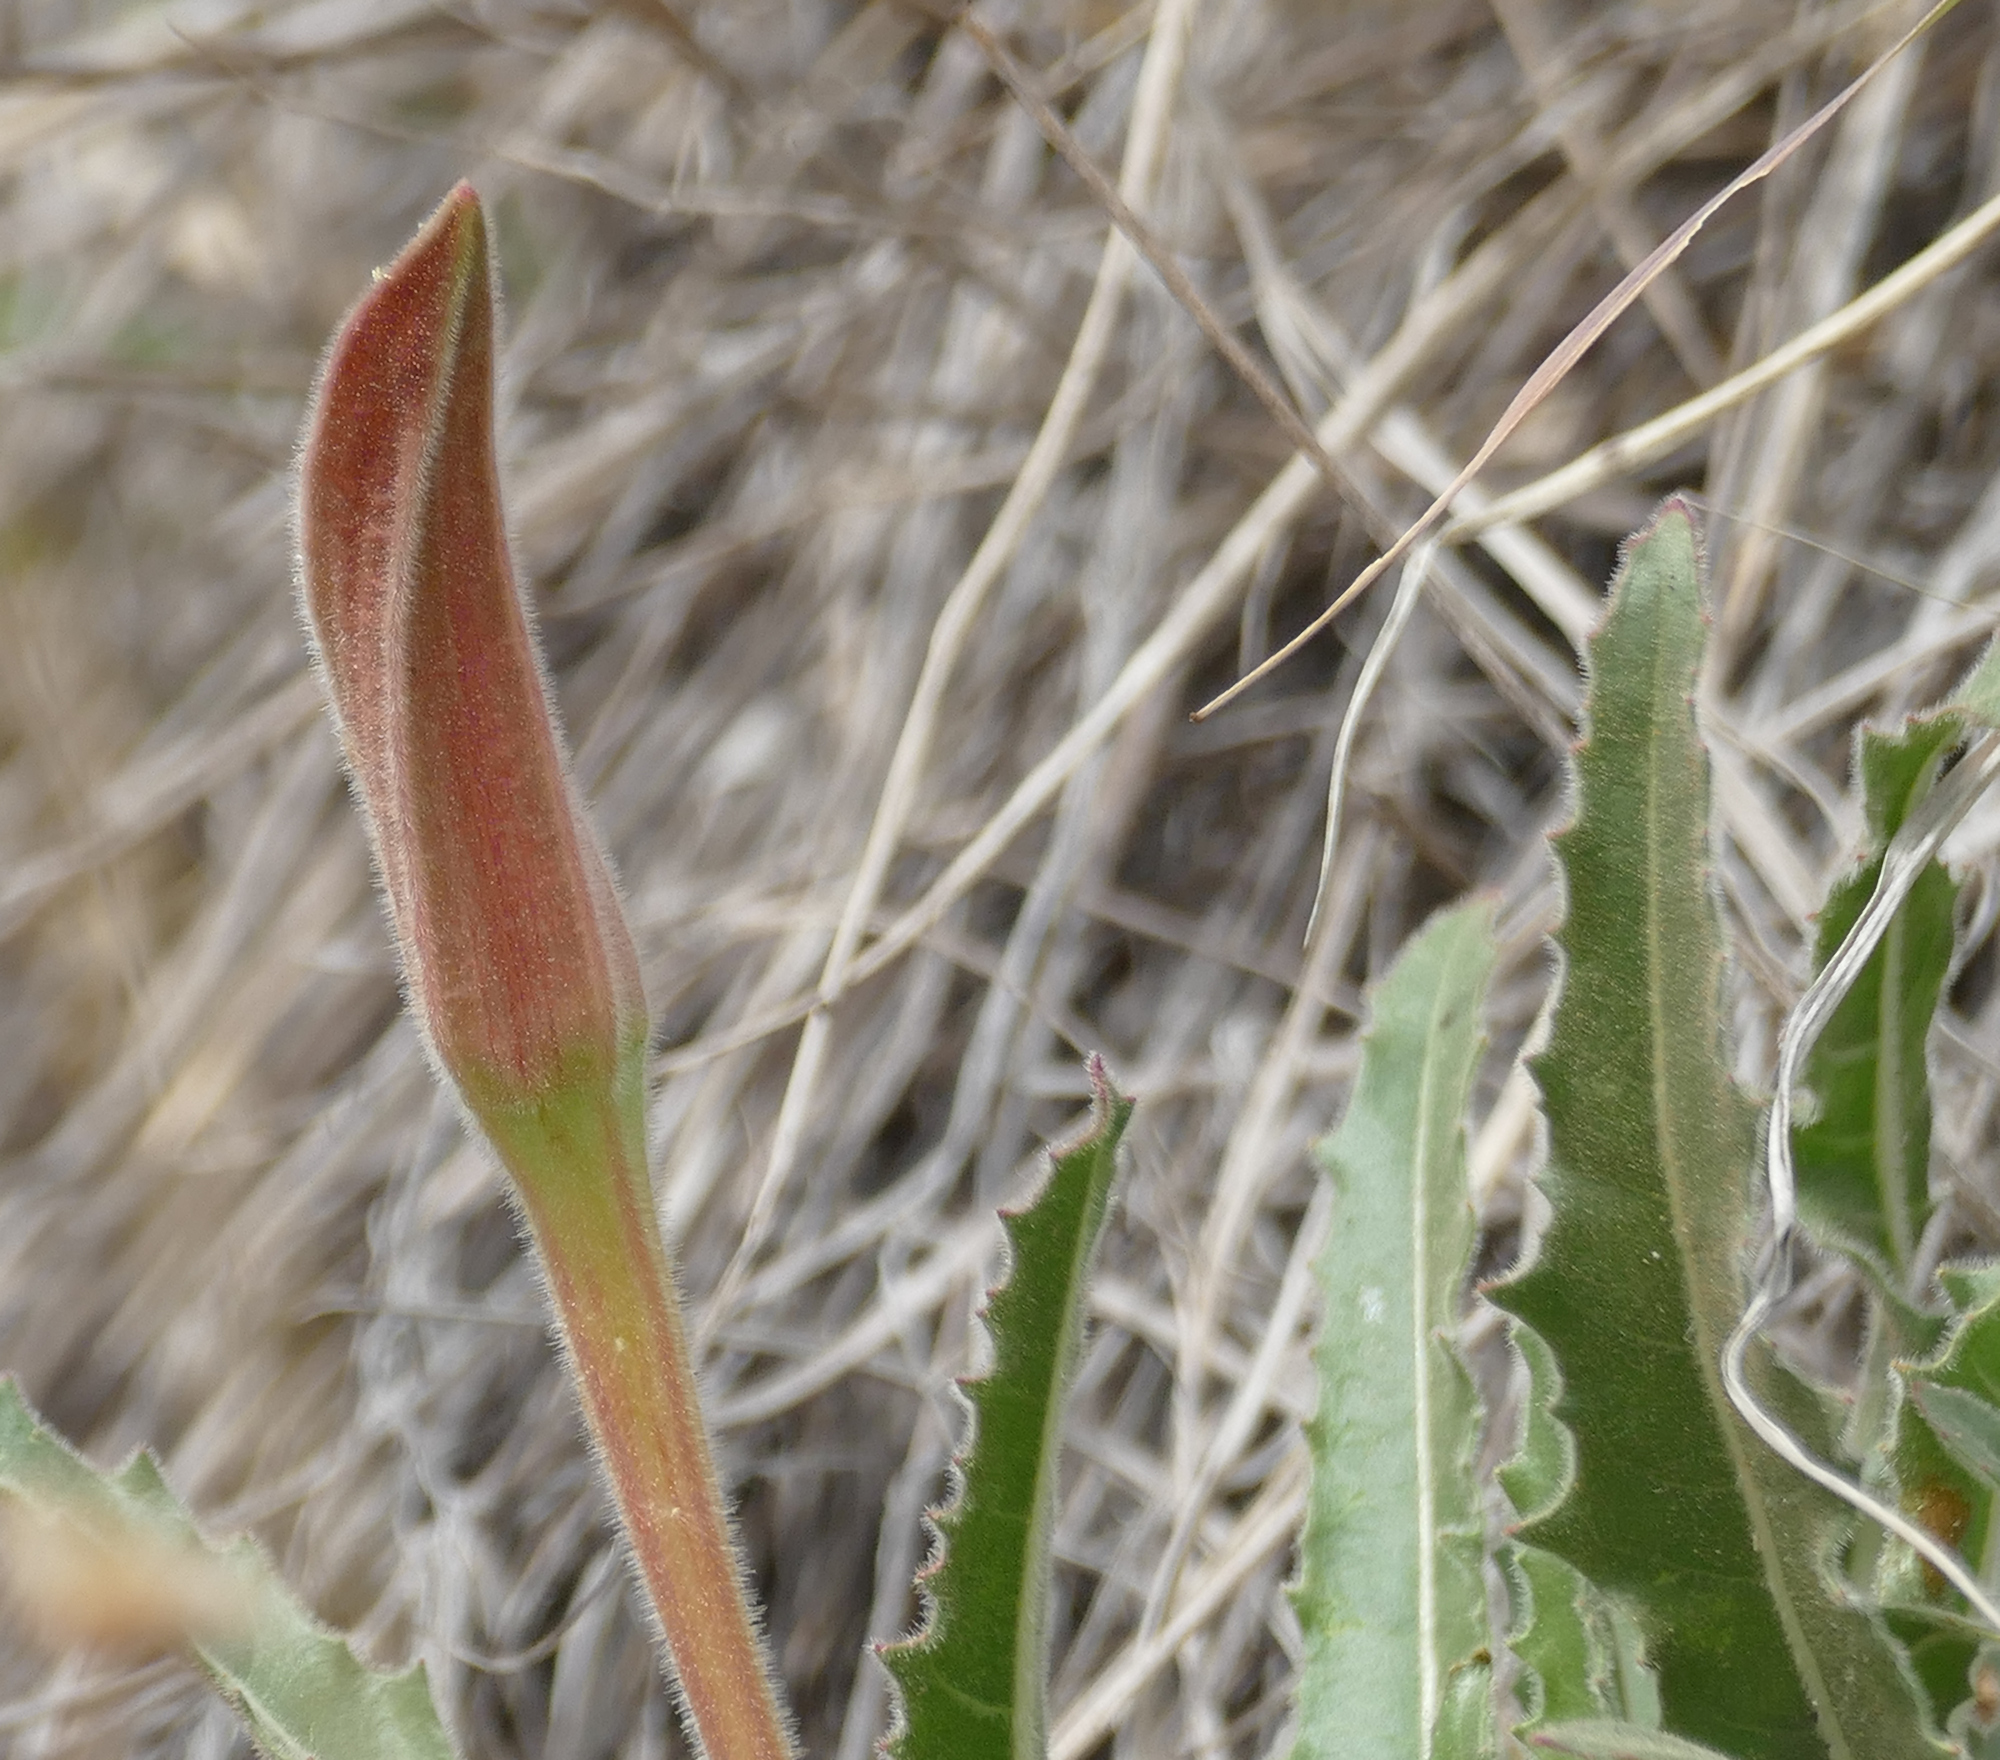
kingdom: Plantae
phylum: Tracheophyta
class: Magnoliopsida
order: Myrtales
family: Onagraceae
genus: Oenothera
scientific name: Oenothera cespitosa
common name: Tufted evening-primrose
